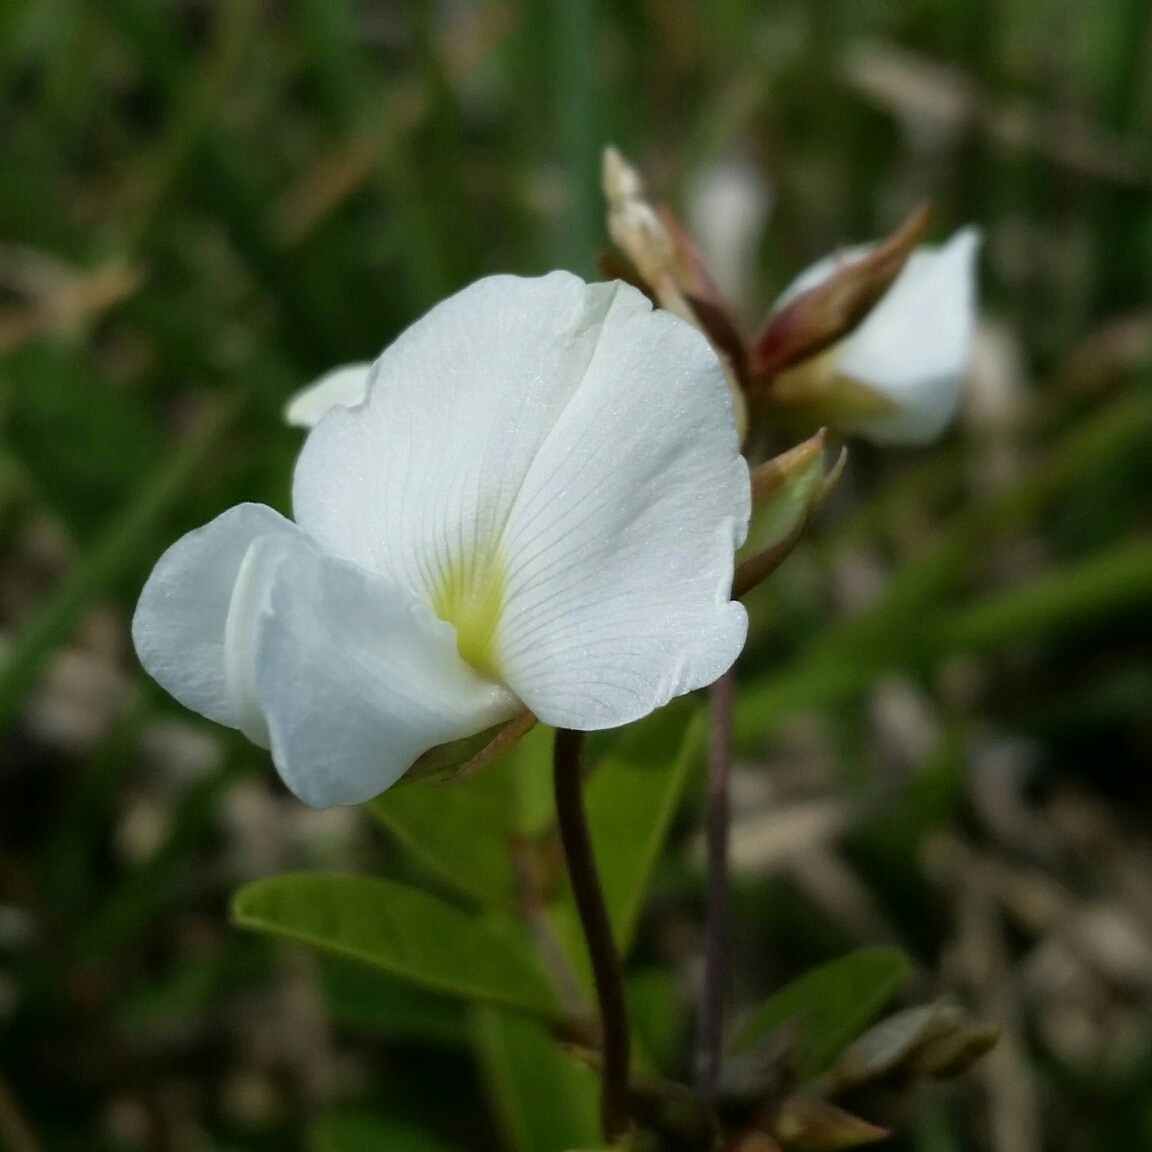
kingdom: Plantae
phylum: Tracheophyta
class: Magnoliopsida
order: Fabales
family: Fabaceae
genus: Galactia
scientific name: Galactia elliottii
